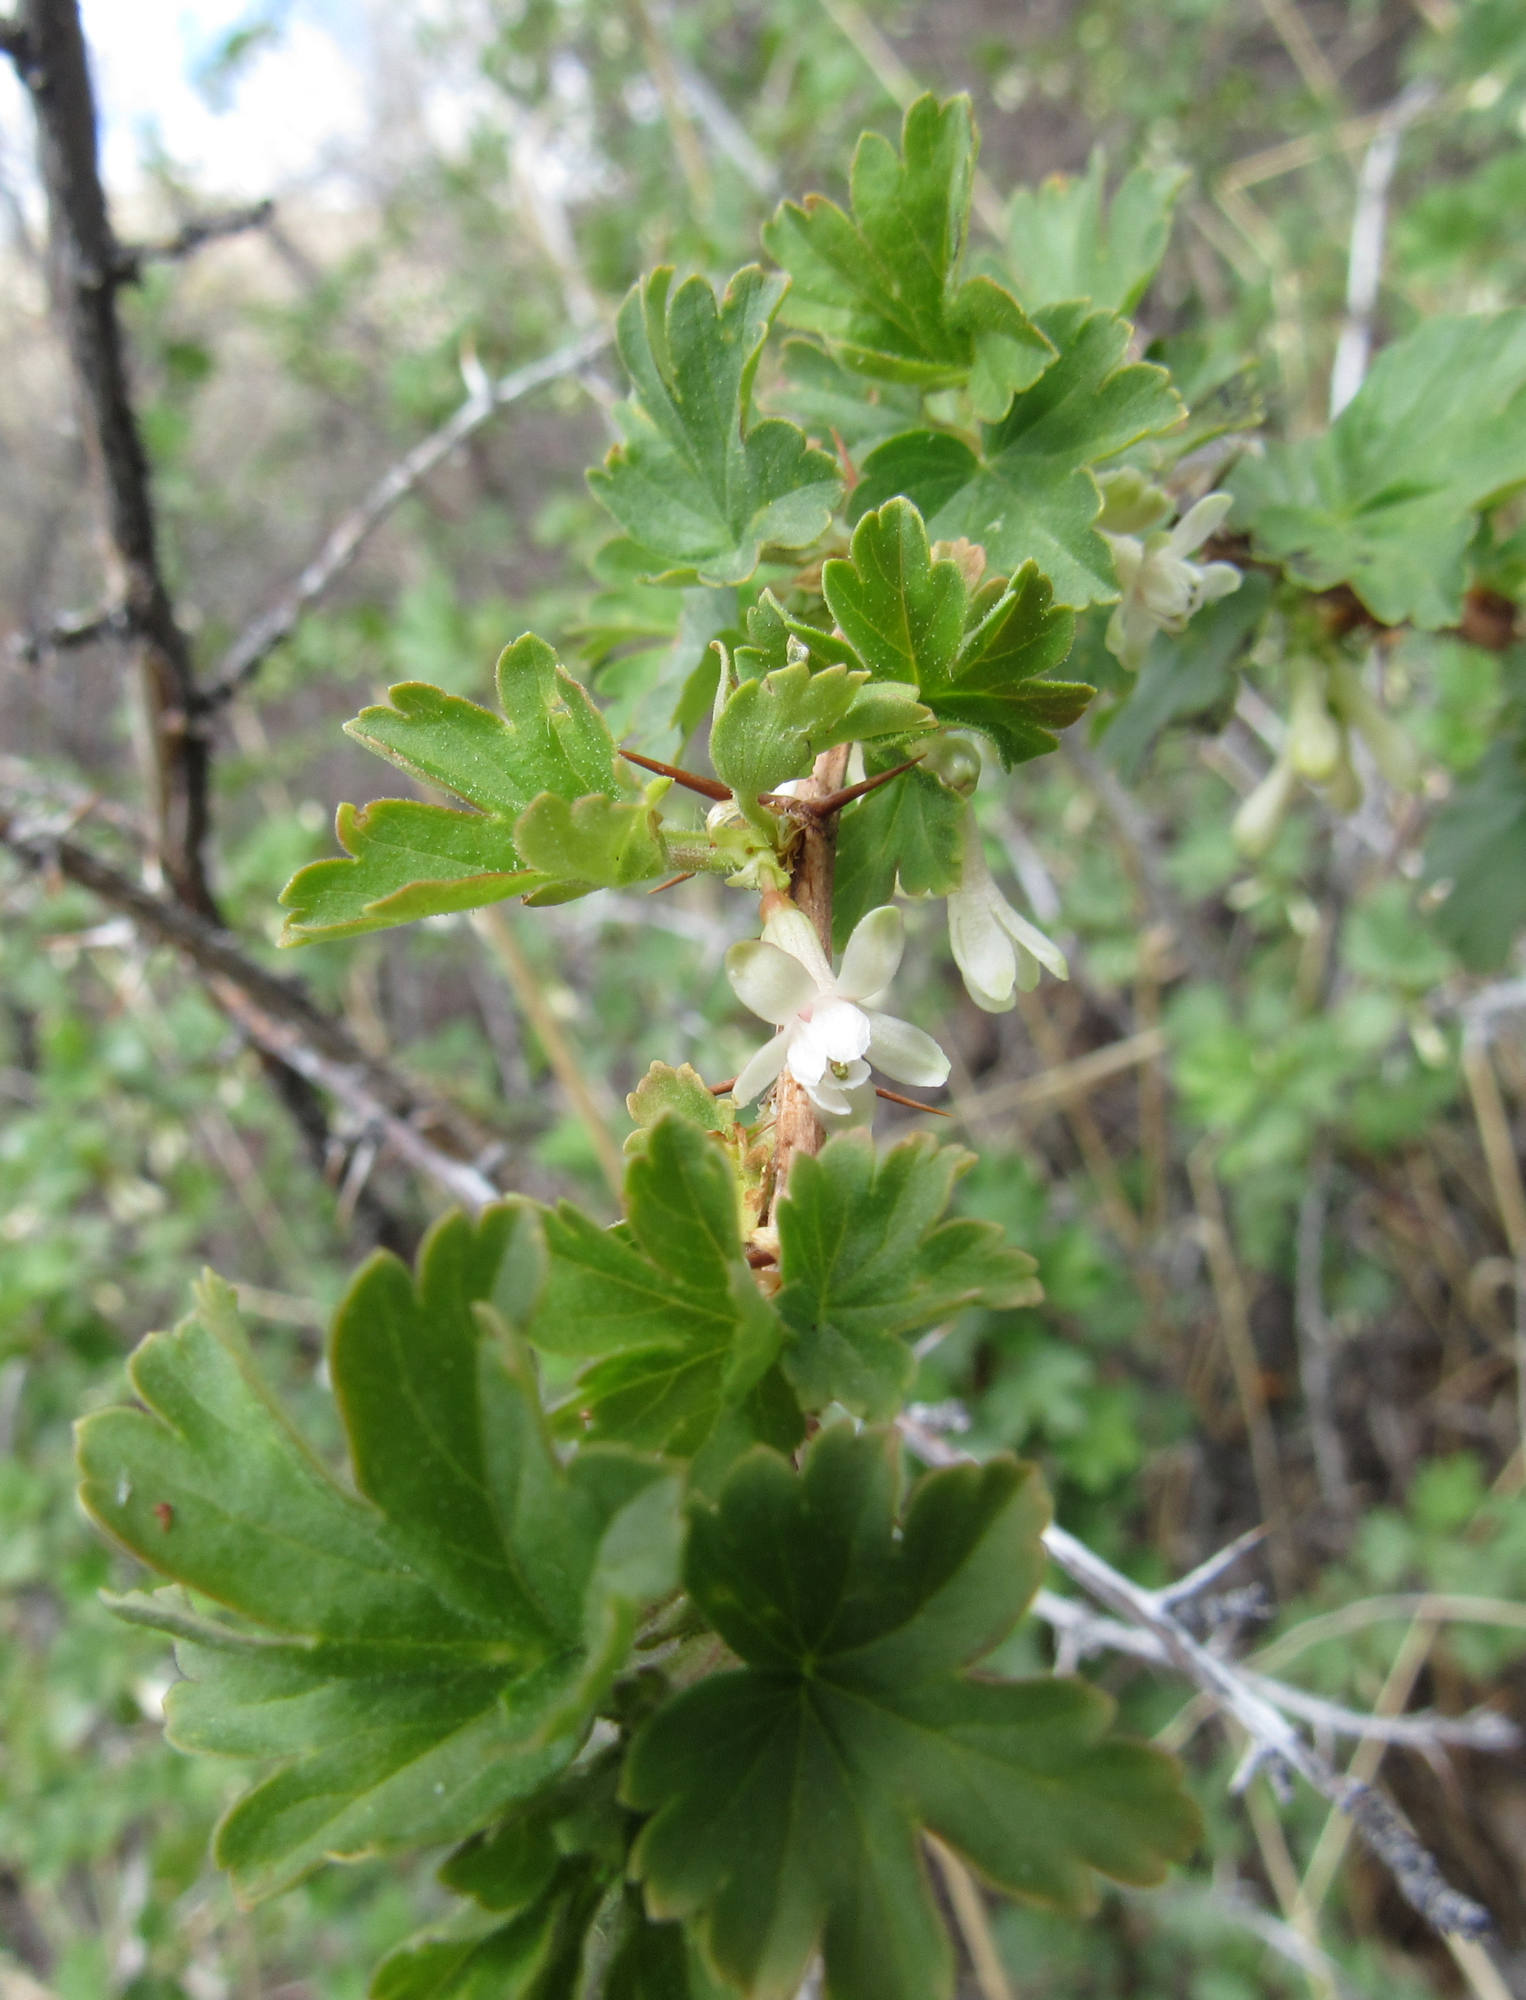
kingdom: Plantae
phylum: Tracheophyta
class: Magnoliopsida
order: Saxifragales
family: Grossulariaceae
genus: Ribes
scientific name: Ribes oxyacanthoides
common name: Northern gooseberry
